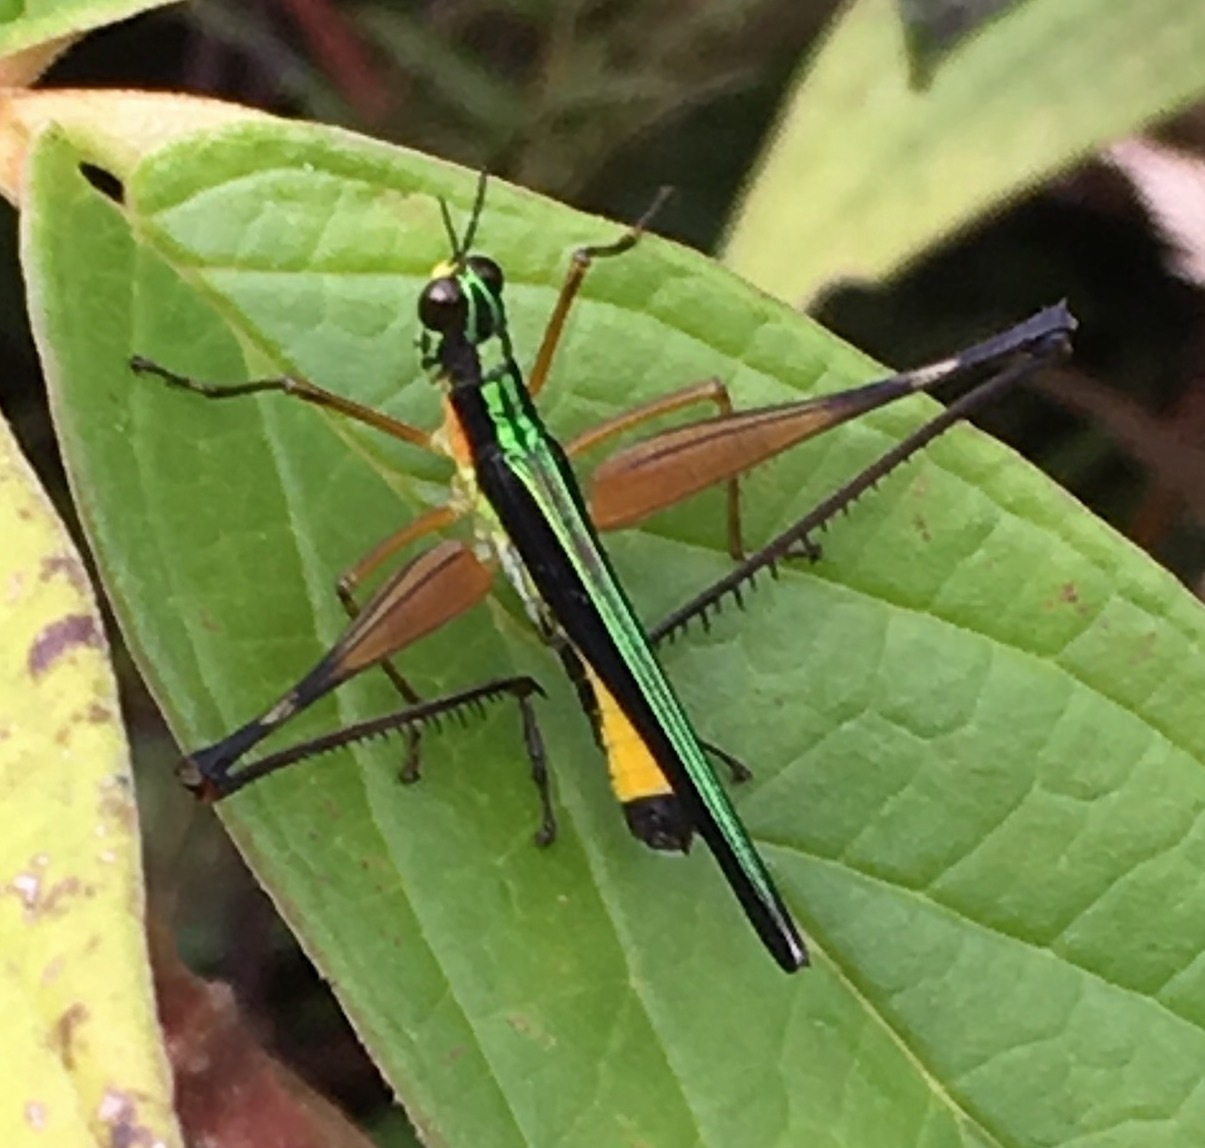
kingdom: Animalia
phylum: Arthropoda
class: Insecta
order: Orthoptera
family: Eumastacidae
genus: Paramastax
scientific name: Paramastax nigra
